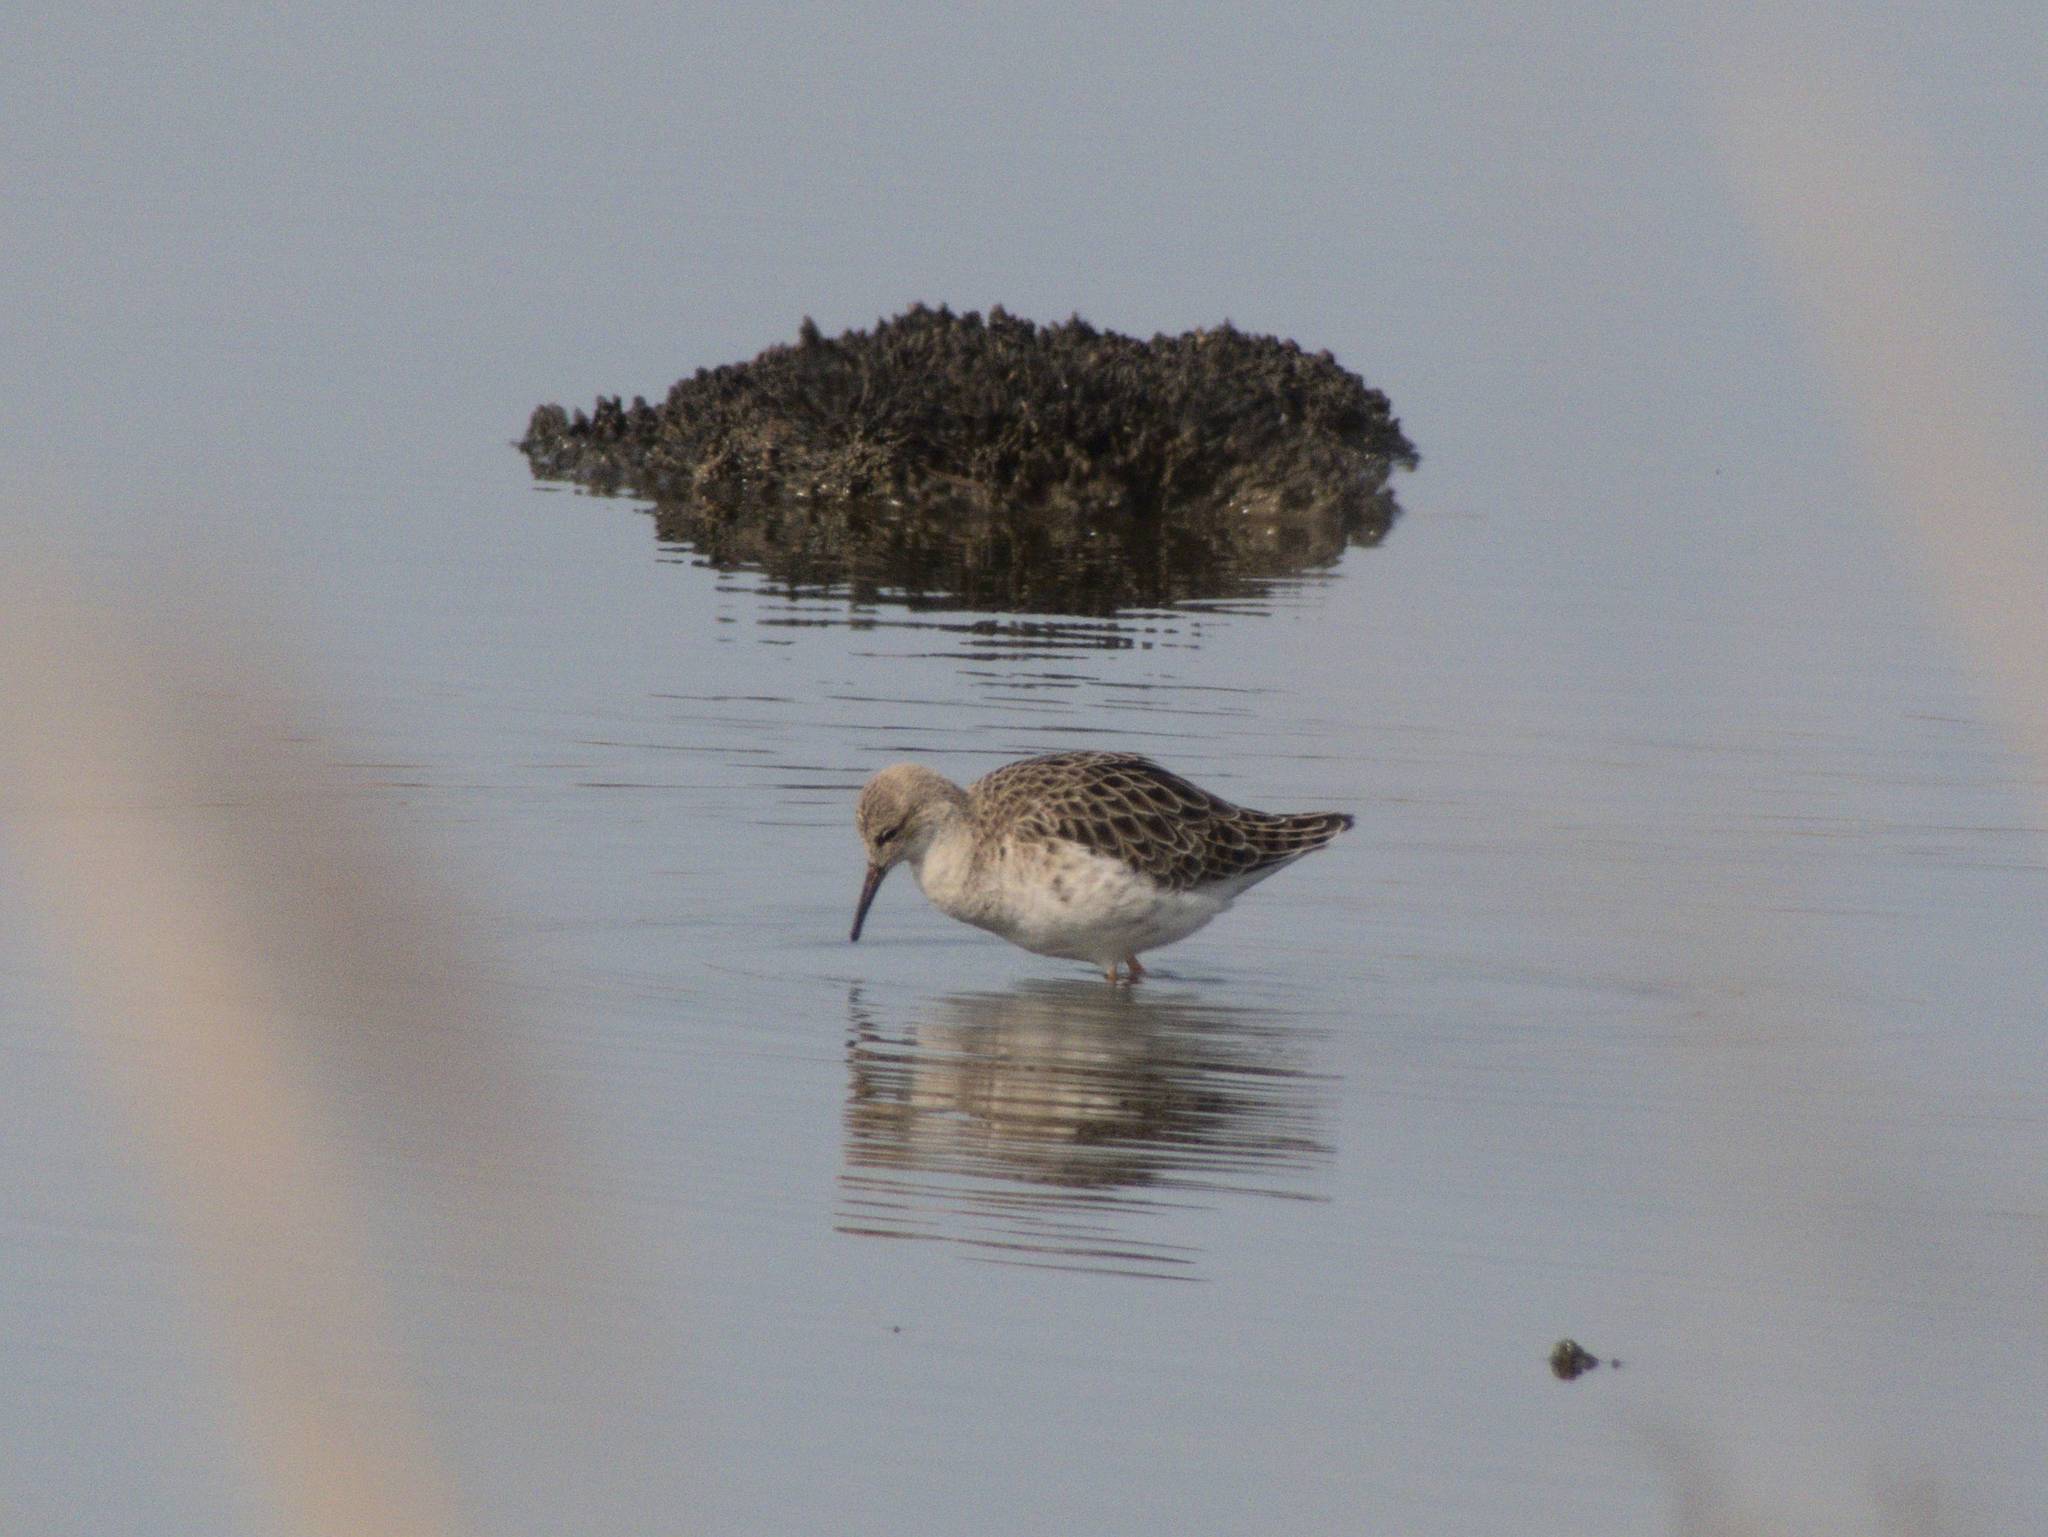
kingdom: Animalia
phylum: Chordata
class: Aves
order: Charadriiformes
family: Scolopacidae
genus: Calidris
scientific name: Calidris pugnax
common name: Ruff
